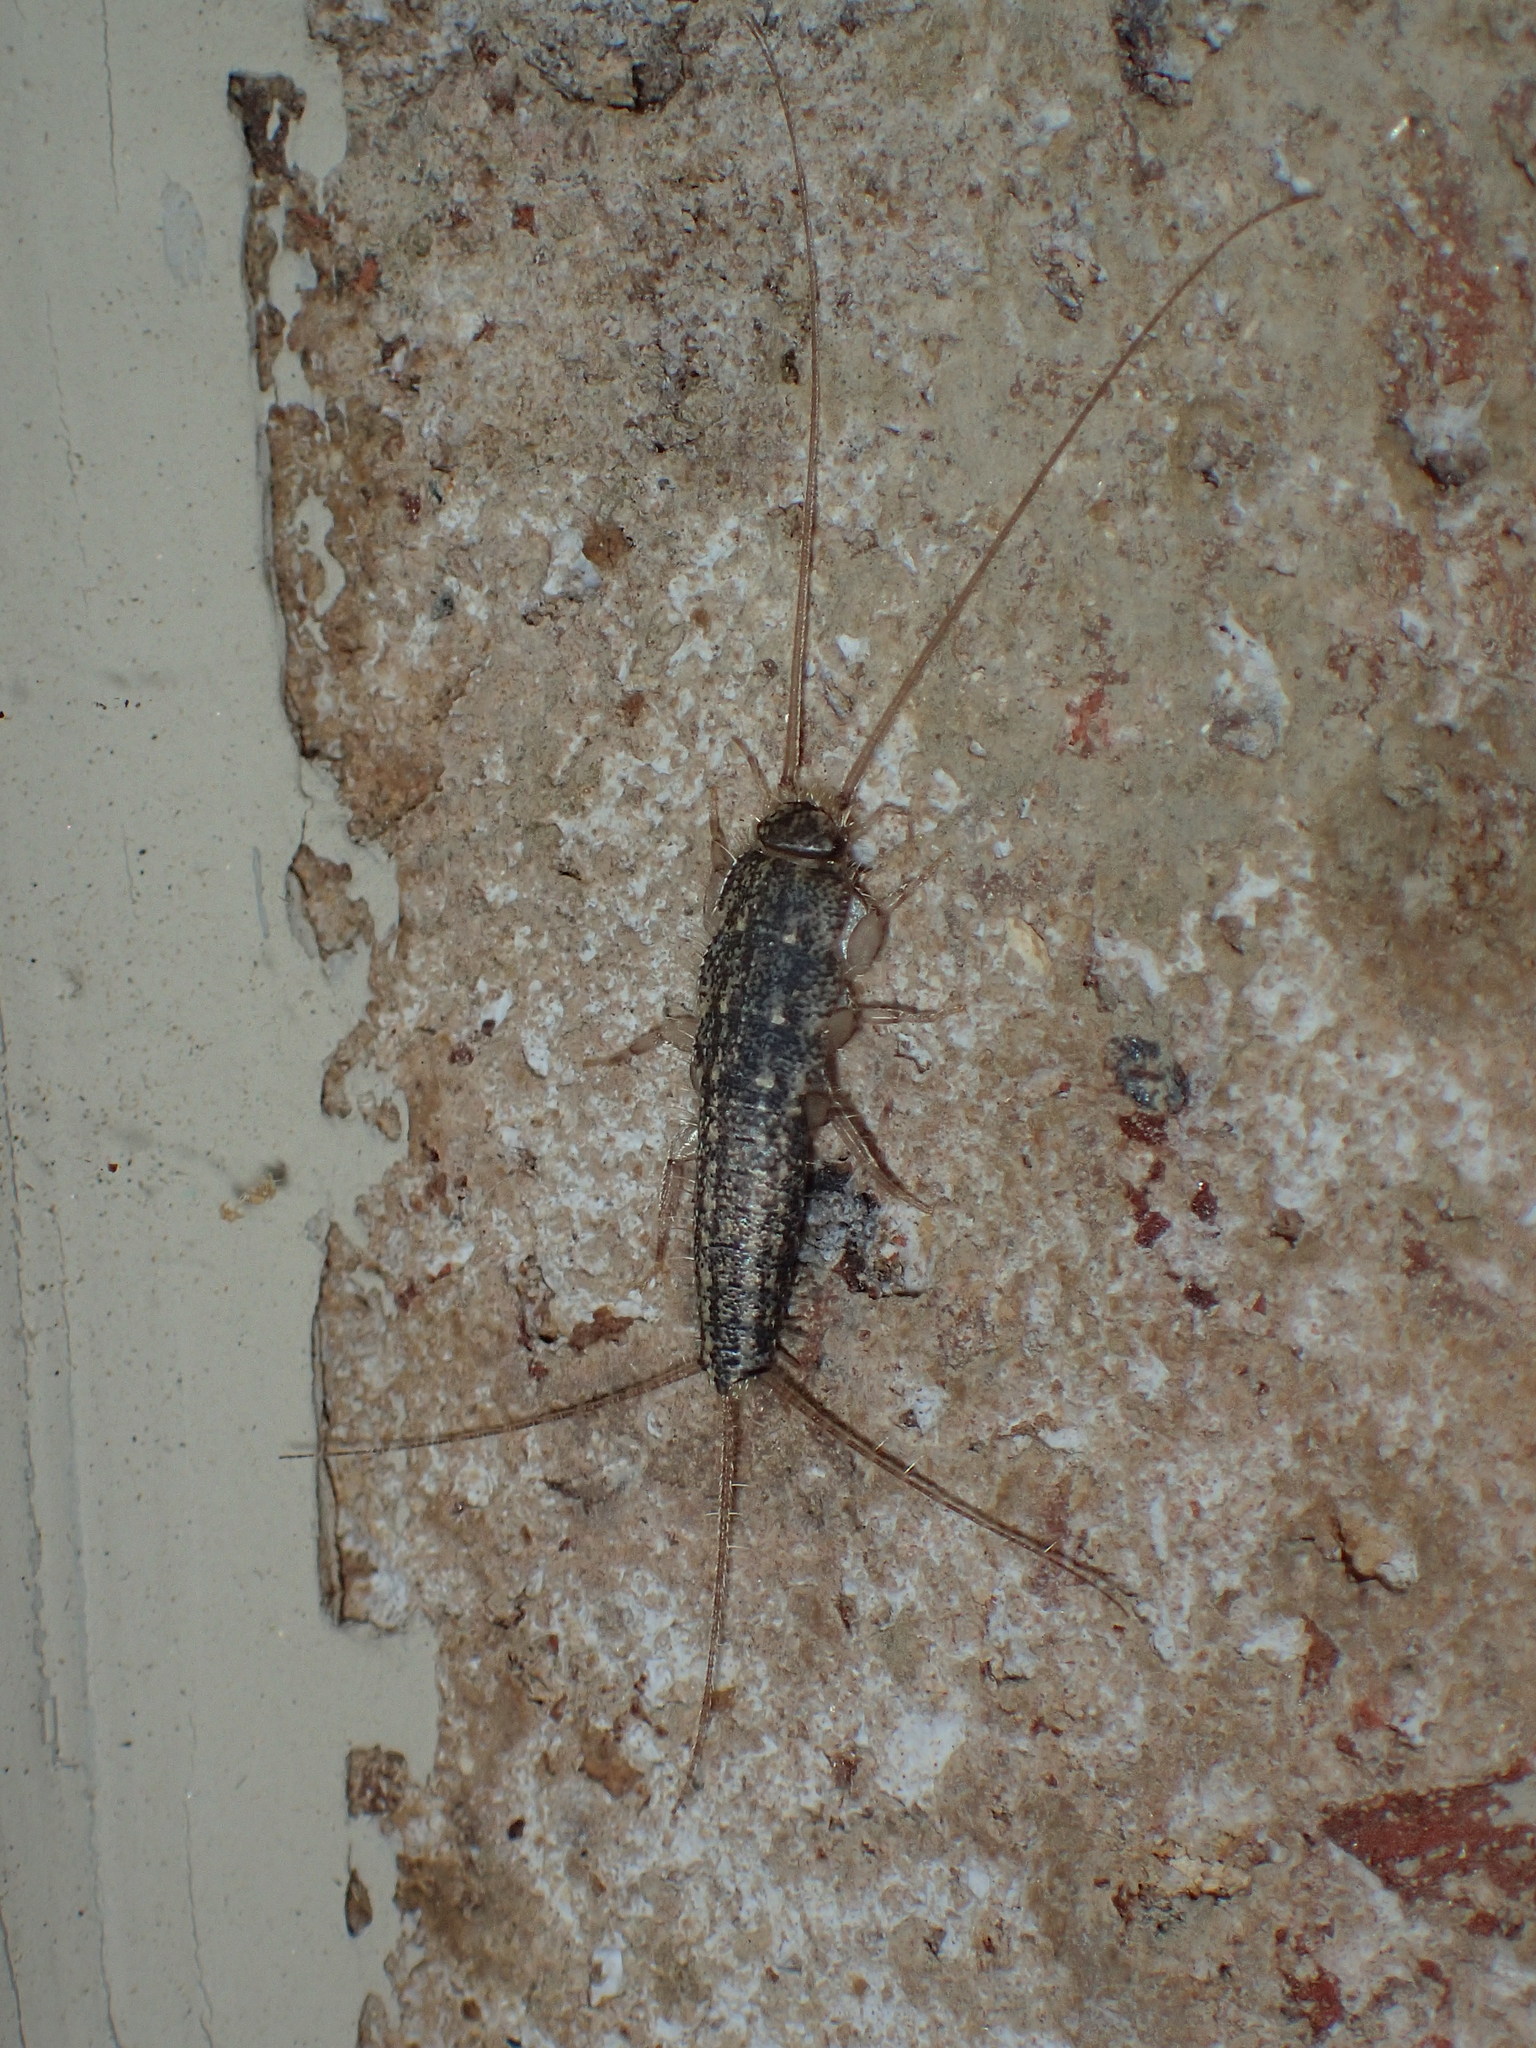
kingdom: Animalia
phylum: Arthropoda
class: Insecta
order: Zygentoma
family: Lepismatidae
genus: Ctenolepisma
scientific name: Ctenolepisma lineata
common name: Four-lined silverfish
